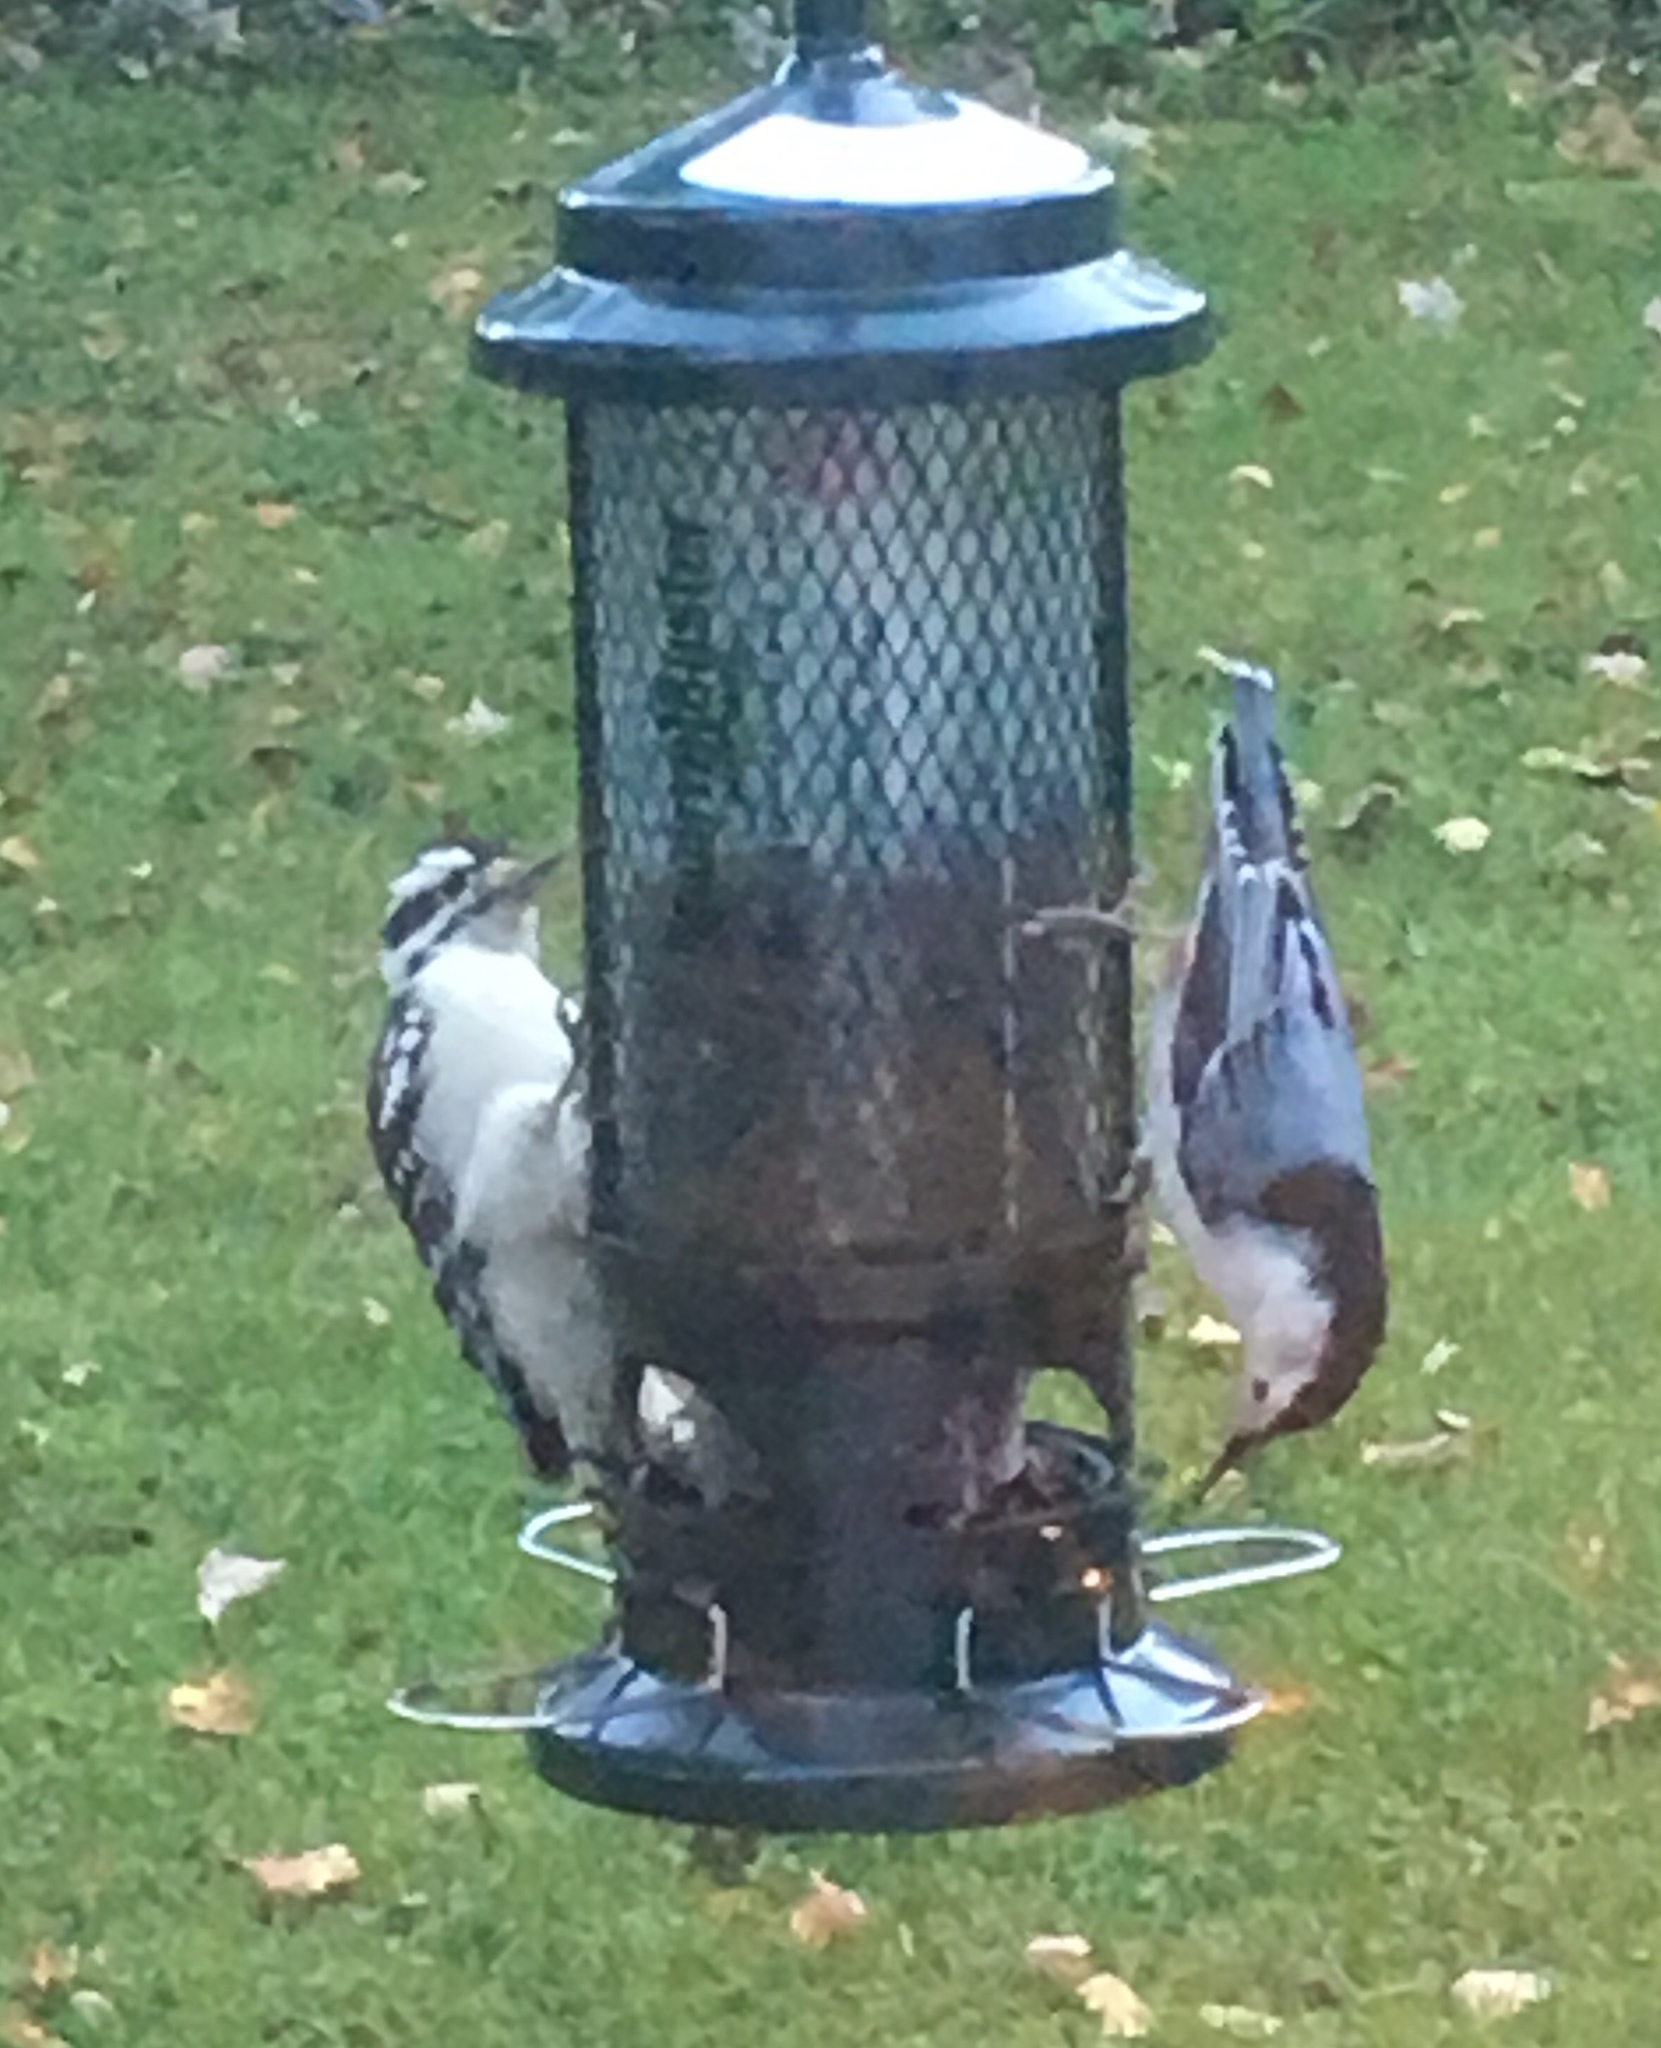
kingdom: Animalia
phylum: Chordata
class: Aves
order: Piciformes
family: Picidae
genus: Dryobates
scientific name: Dryobates pubescens
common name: Downy woodpecker
